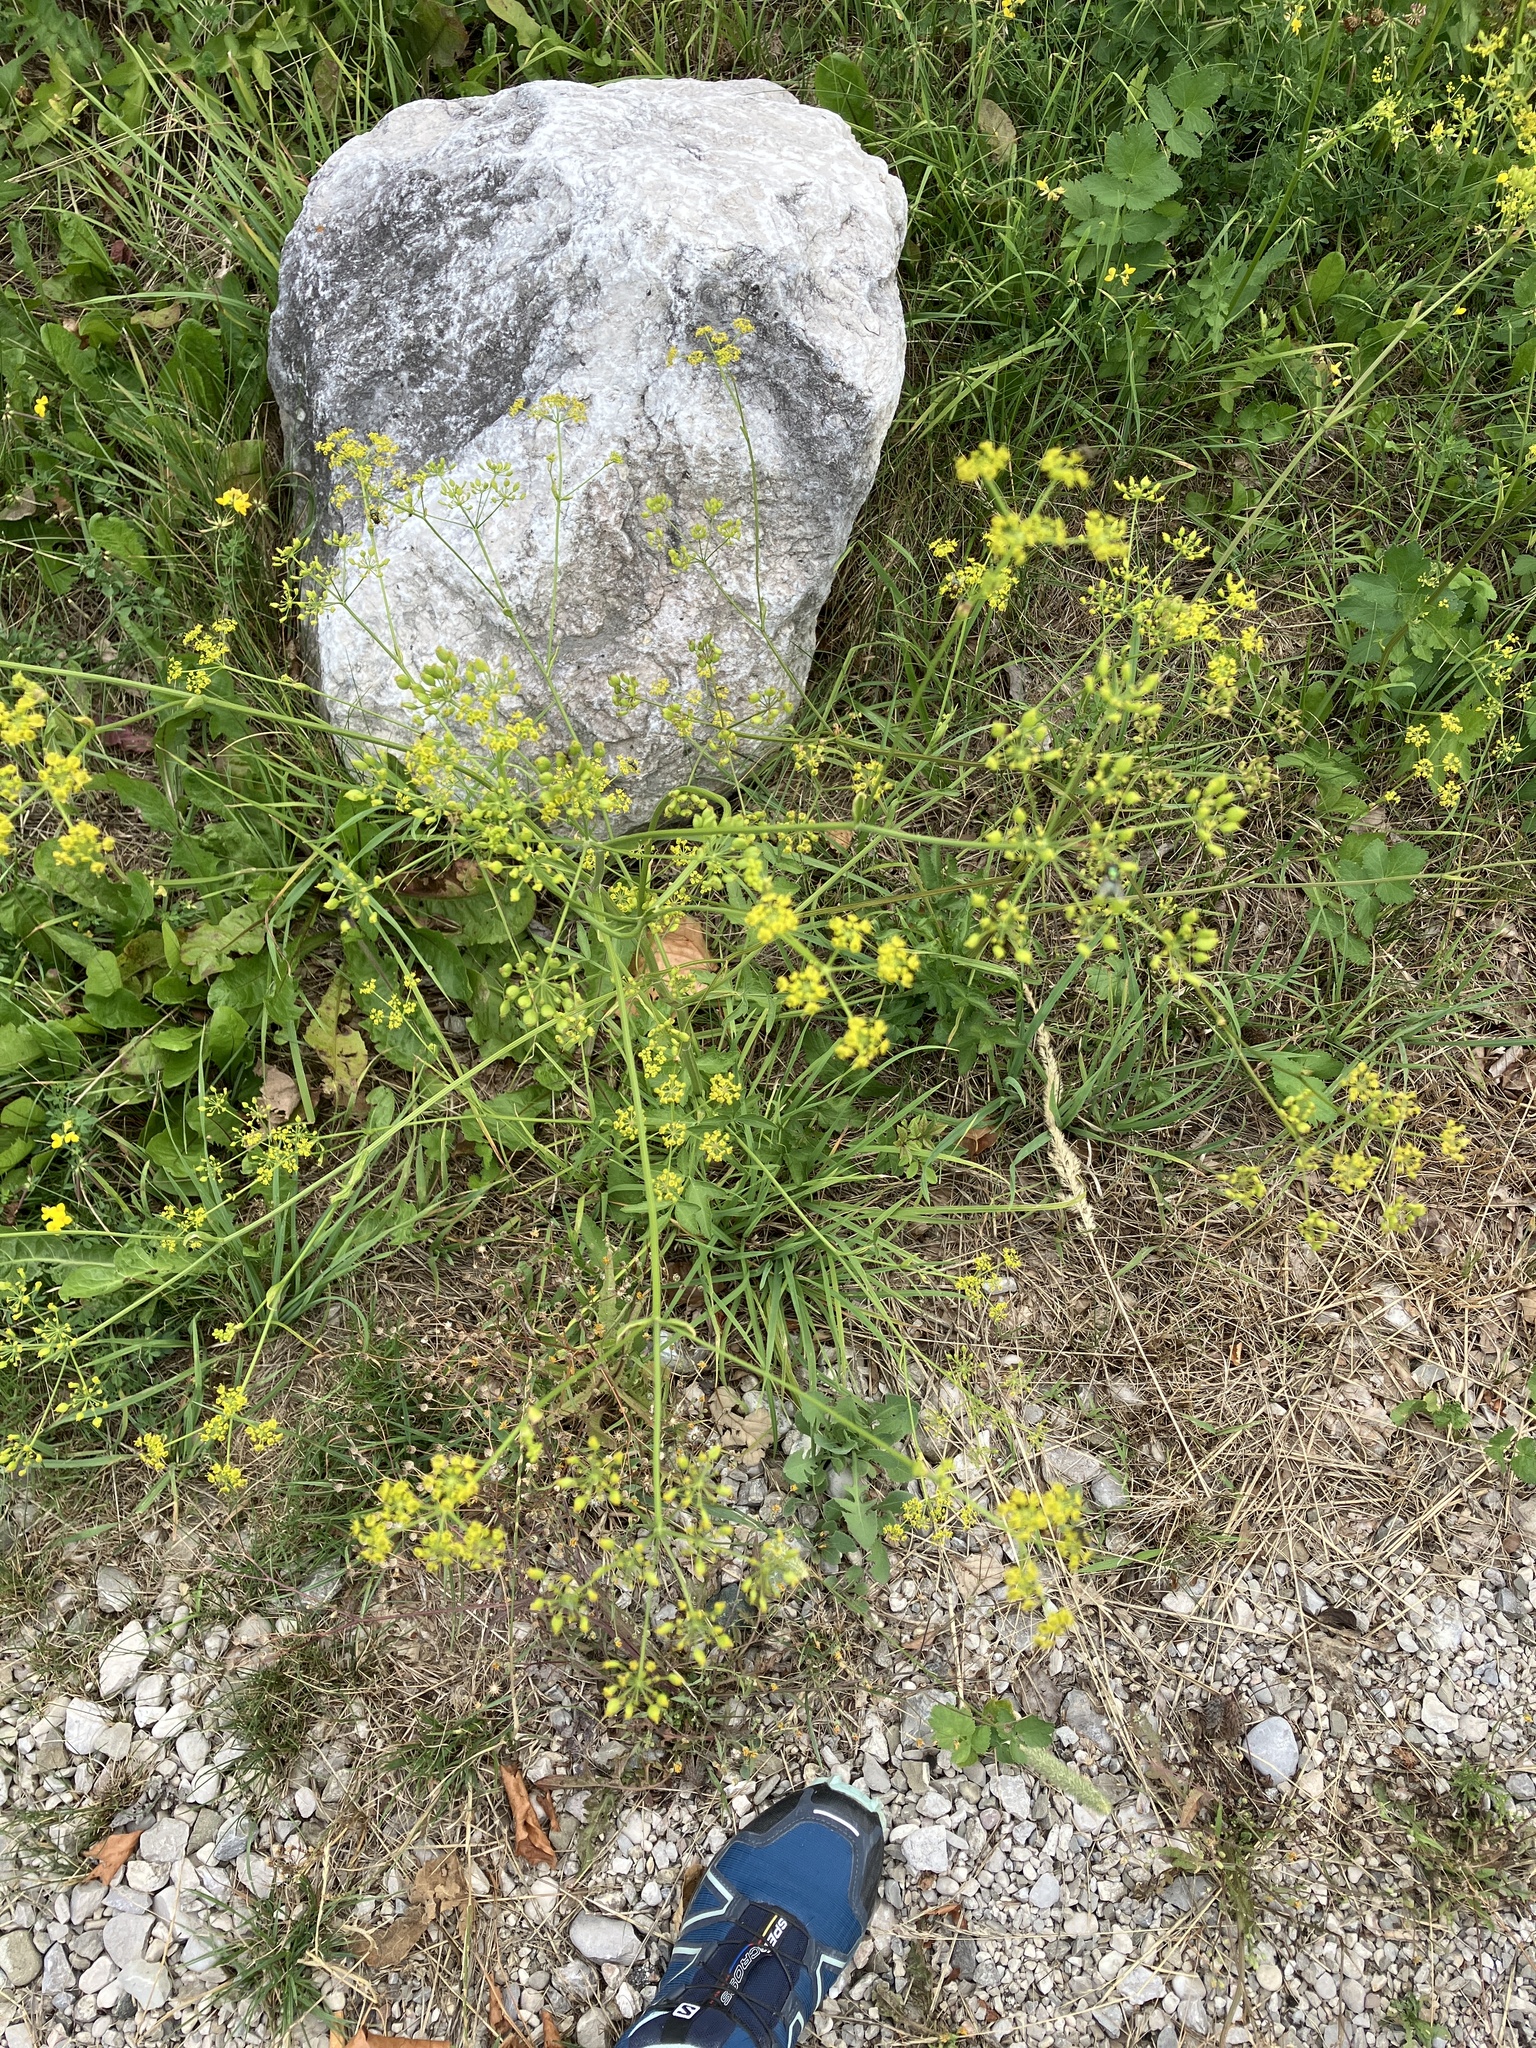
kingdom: Plantae
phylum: Tracheophyta
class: Magnoliopsida
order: Apiales
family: Apiaceae
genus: Pastinaca
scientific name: Pastinaca sativa
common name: Wild parsnip
